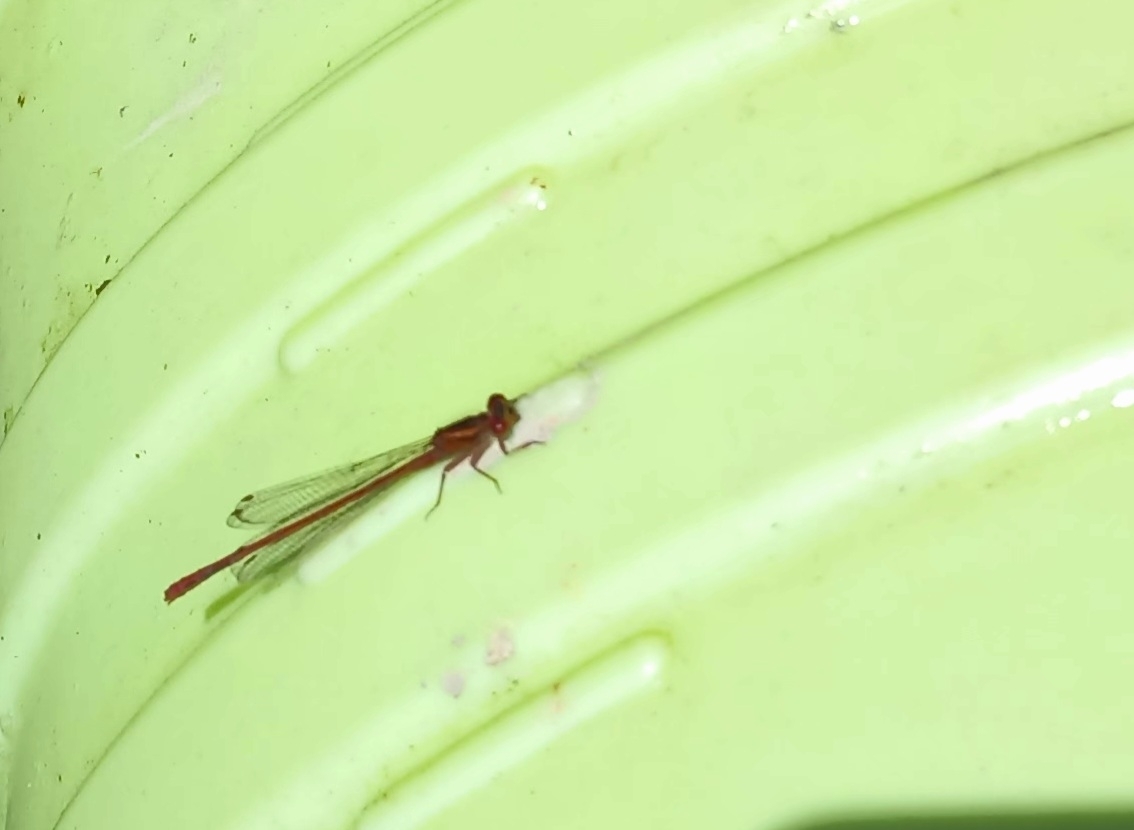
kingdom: Animalia
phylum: Arthropoda
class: Insecta
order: Odonata
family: Coenagrionidae
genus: Xanthocnemis
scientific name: Xanthocnemis zealandica
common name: Common redcoat damselfly
